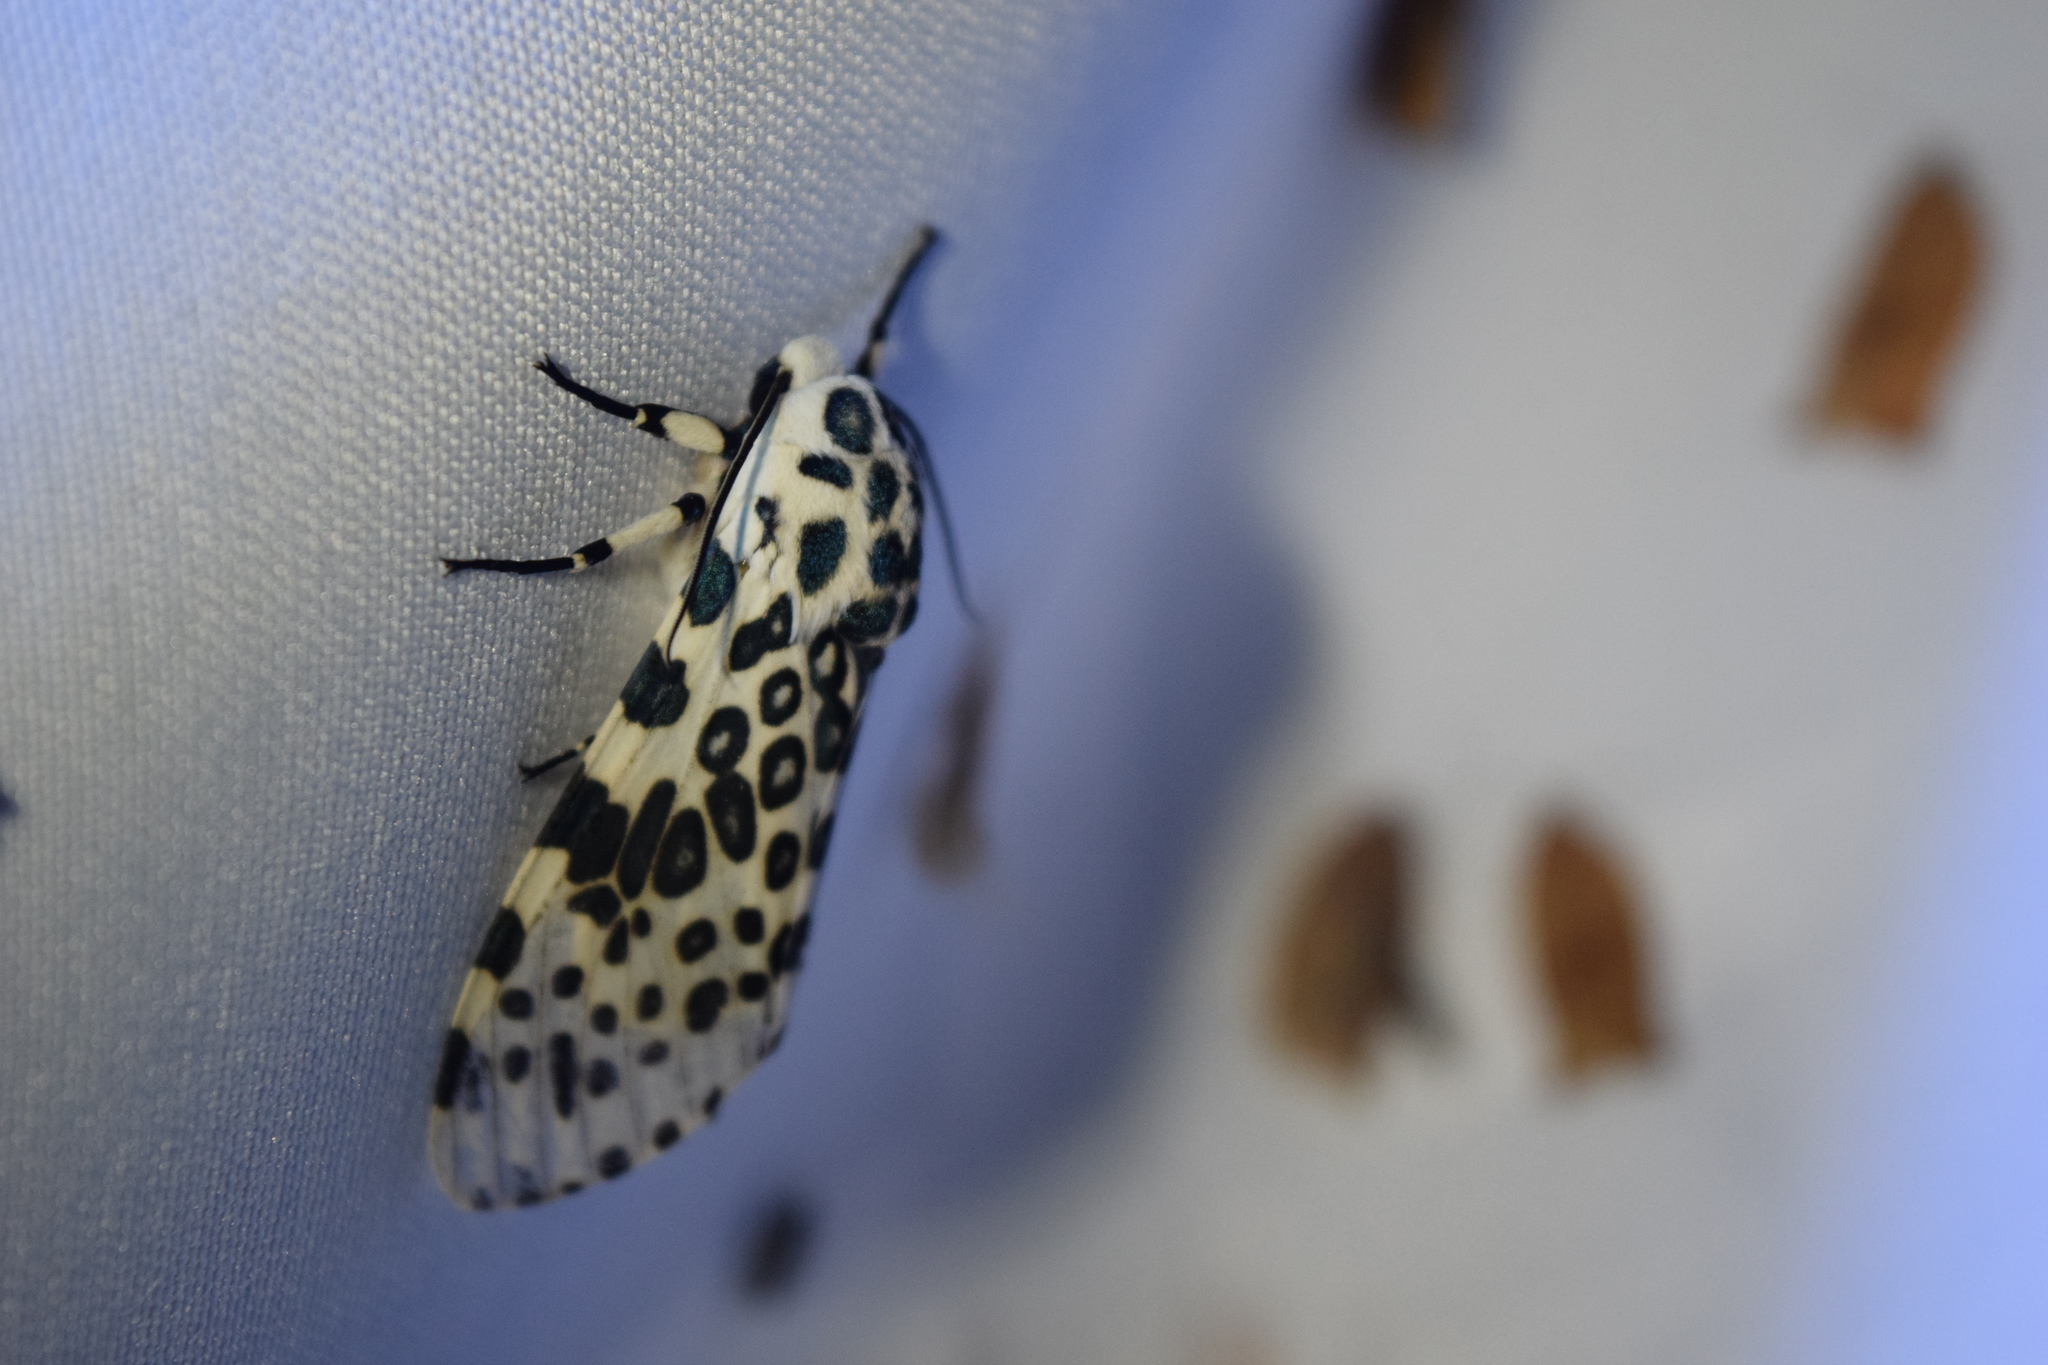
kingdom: Animalia
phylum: Arthropoda
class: Insecta
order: Lepidoptera
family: Erebidae
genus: Hypercompe
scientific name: Hypercompe scribonia
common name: Giant leopard moth
